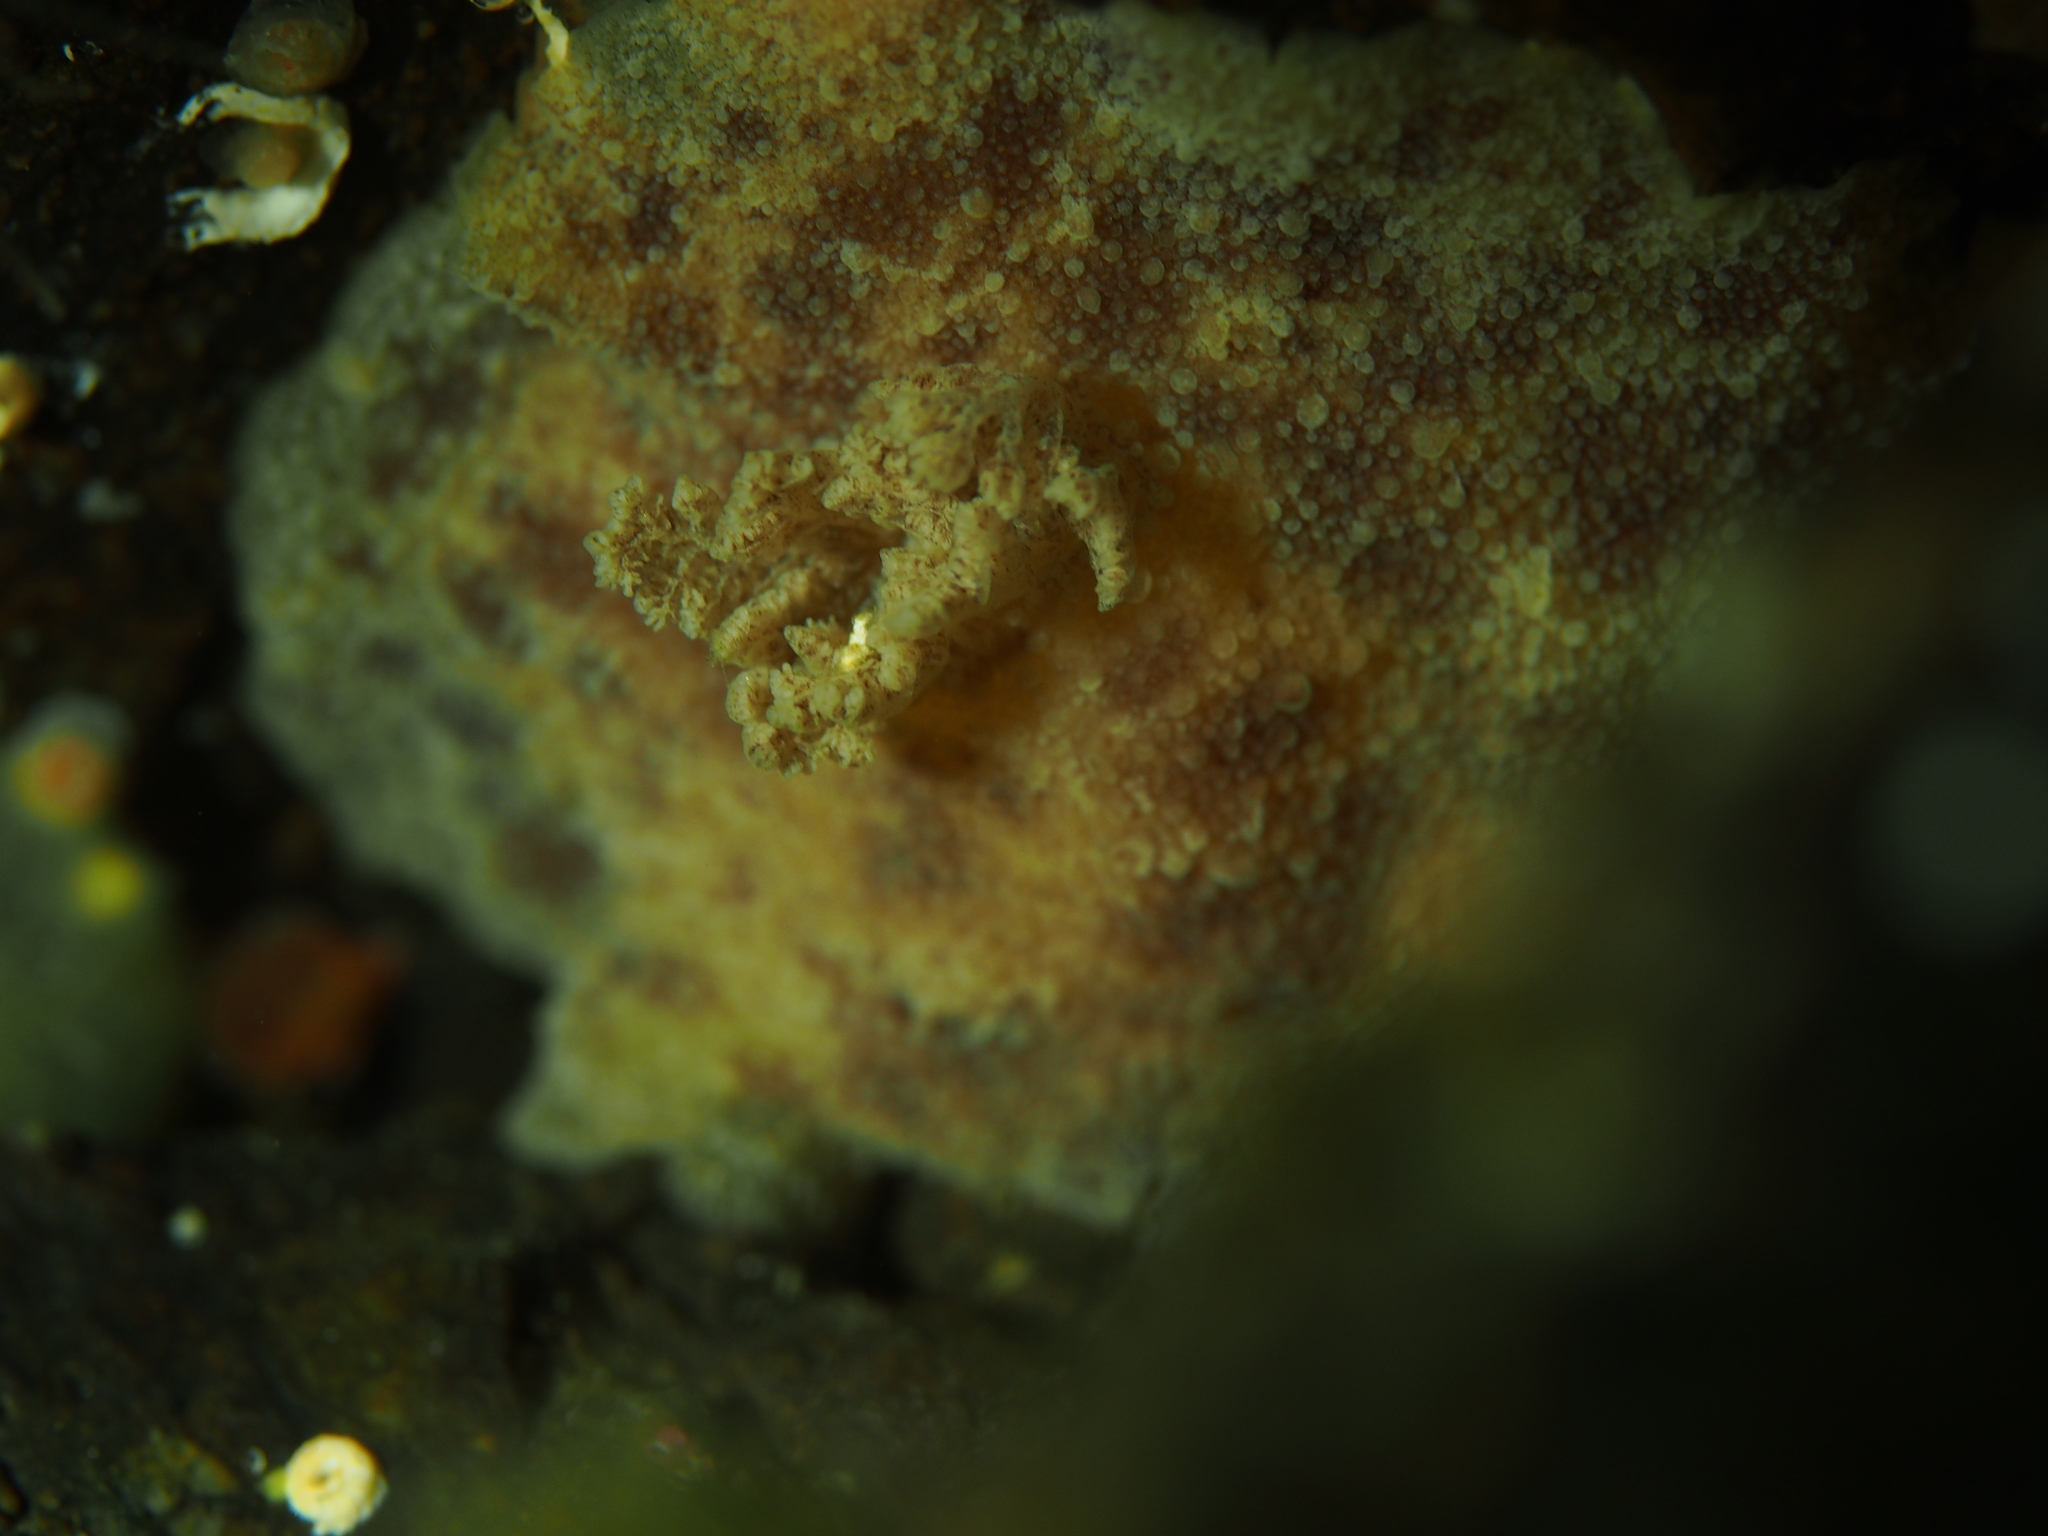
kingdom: Animalia
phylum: Mollusca
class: Gastropoda
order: Nudibranchia
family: Discodorididae
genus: Geitodoris
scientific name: Geitodoris planata
